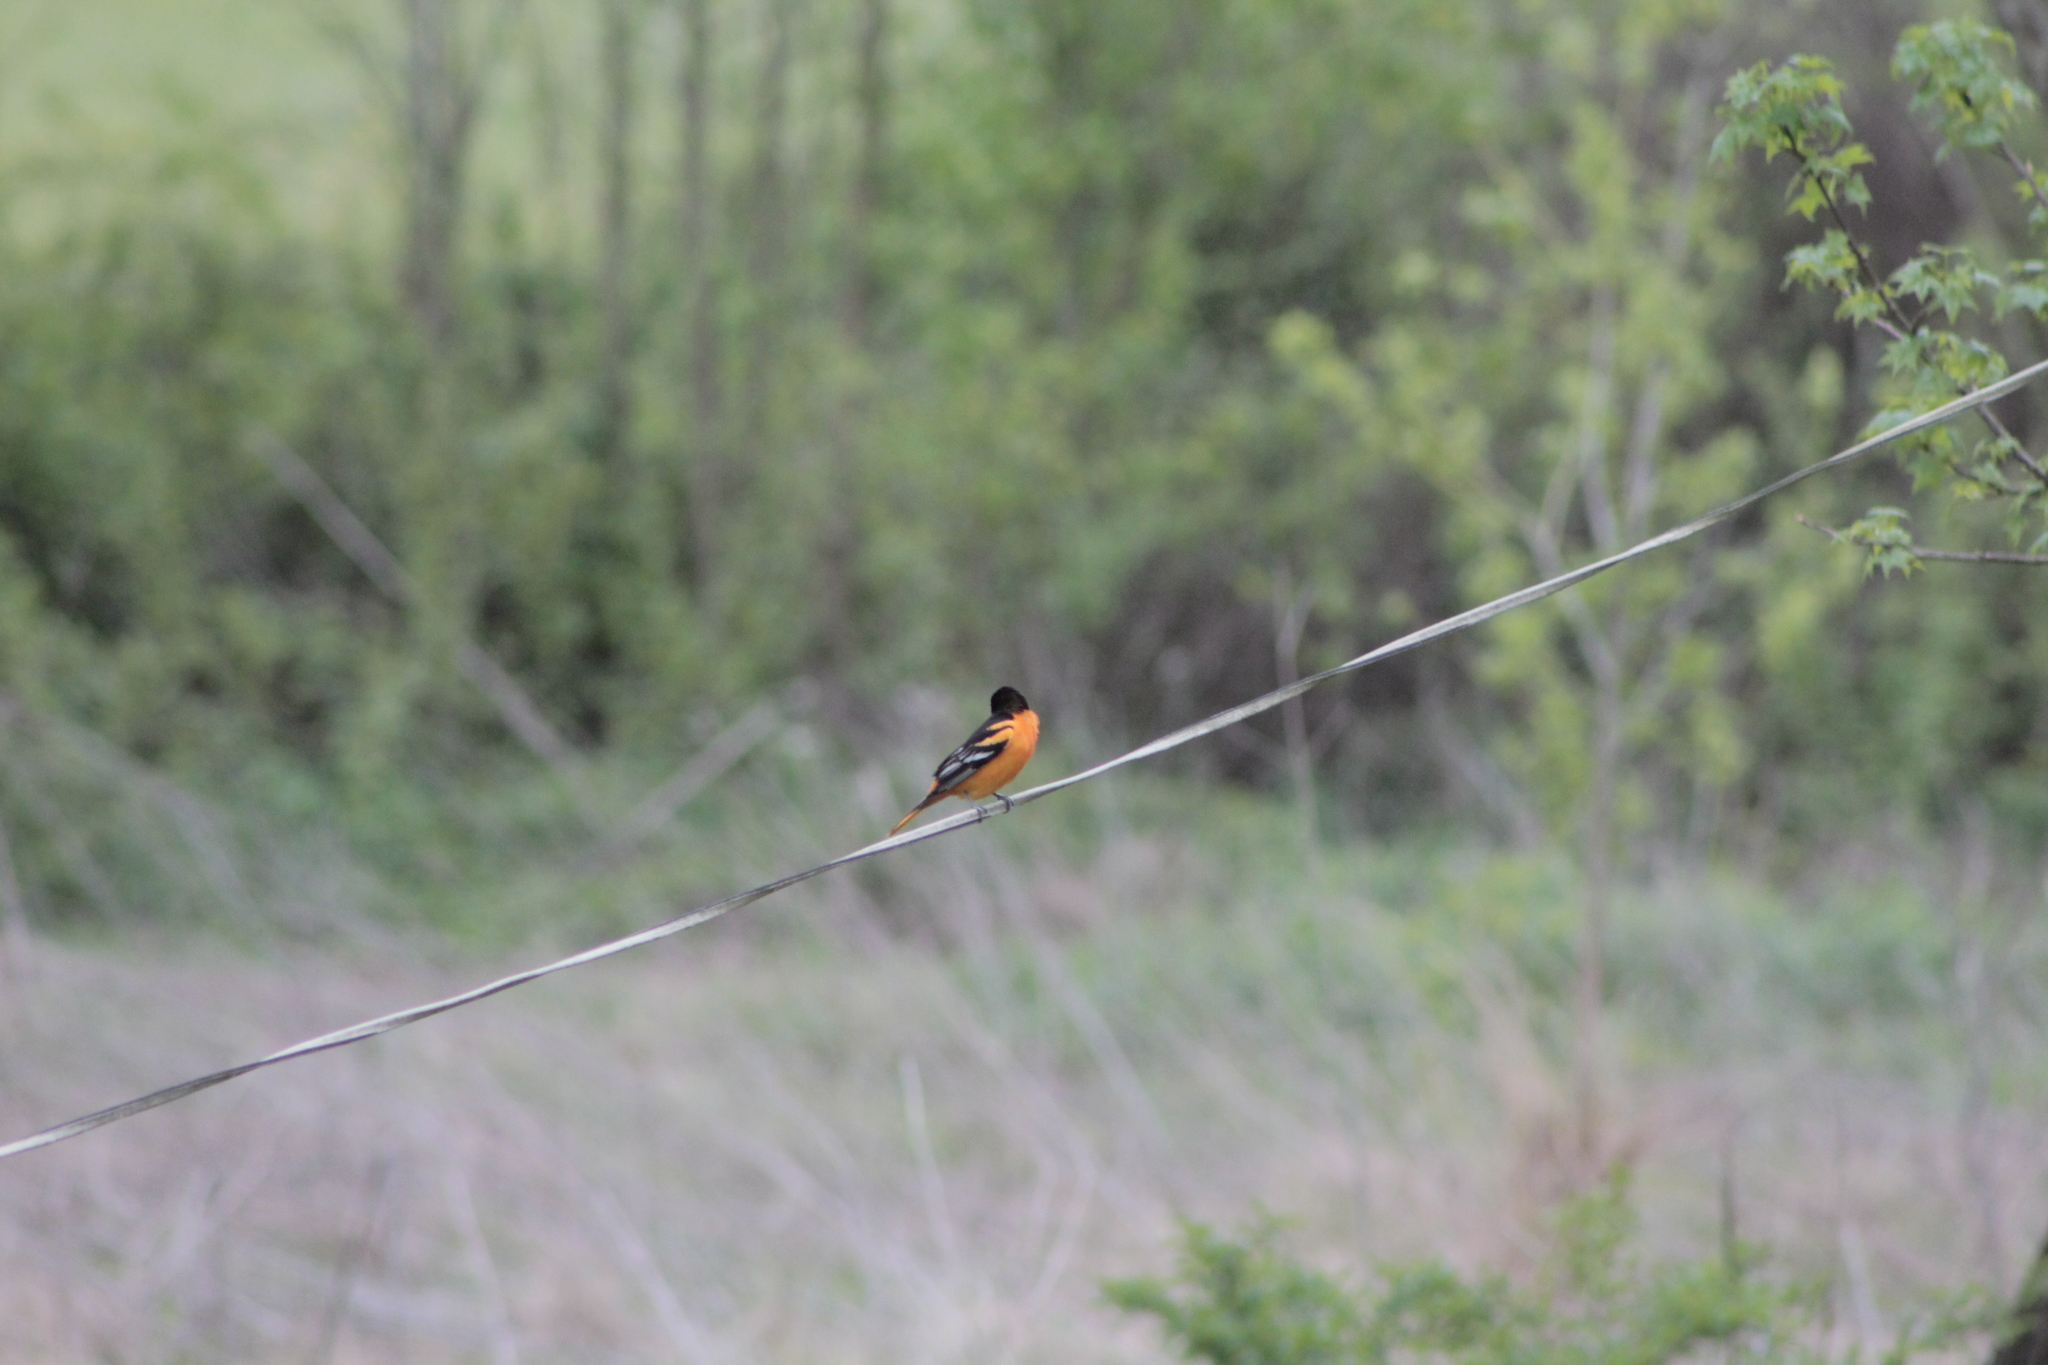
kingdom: Animalia
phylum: Chordata
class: Aves
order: Passeriformes
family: Icteridae
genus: Icterus
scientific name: Icterus galbula
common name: Baltimore oriole
